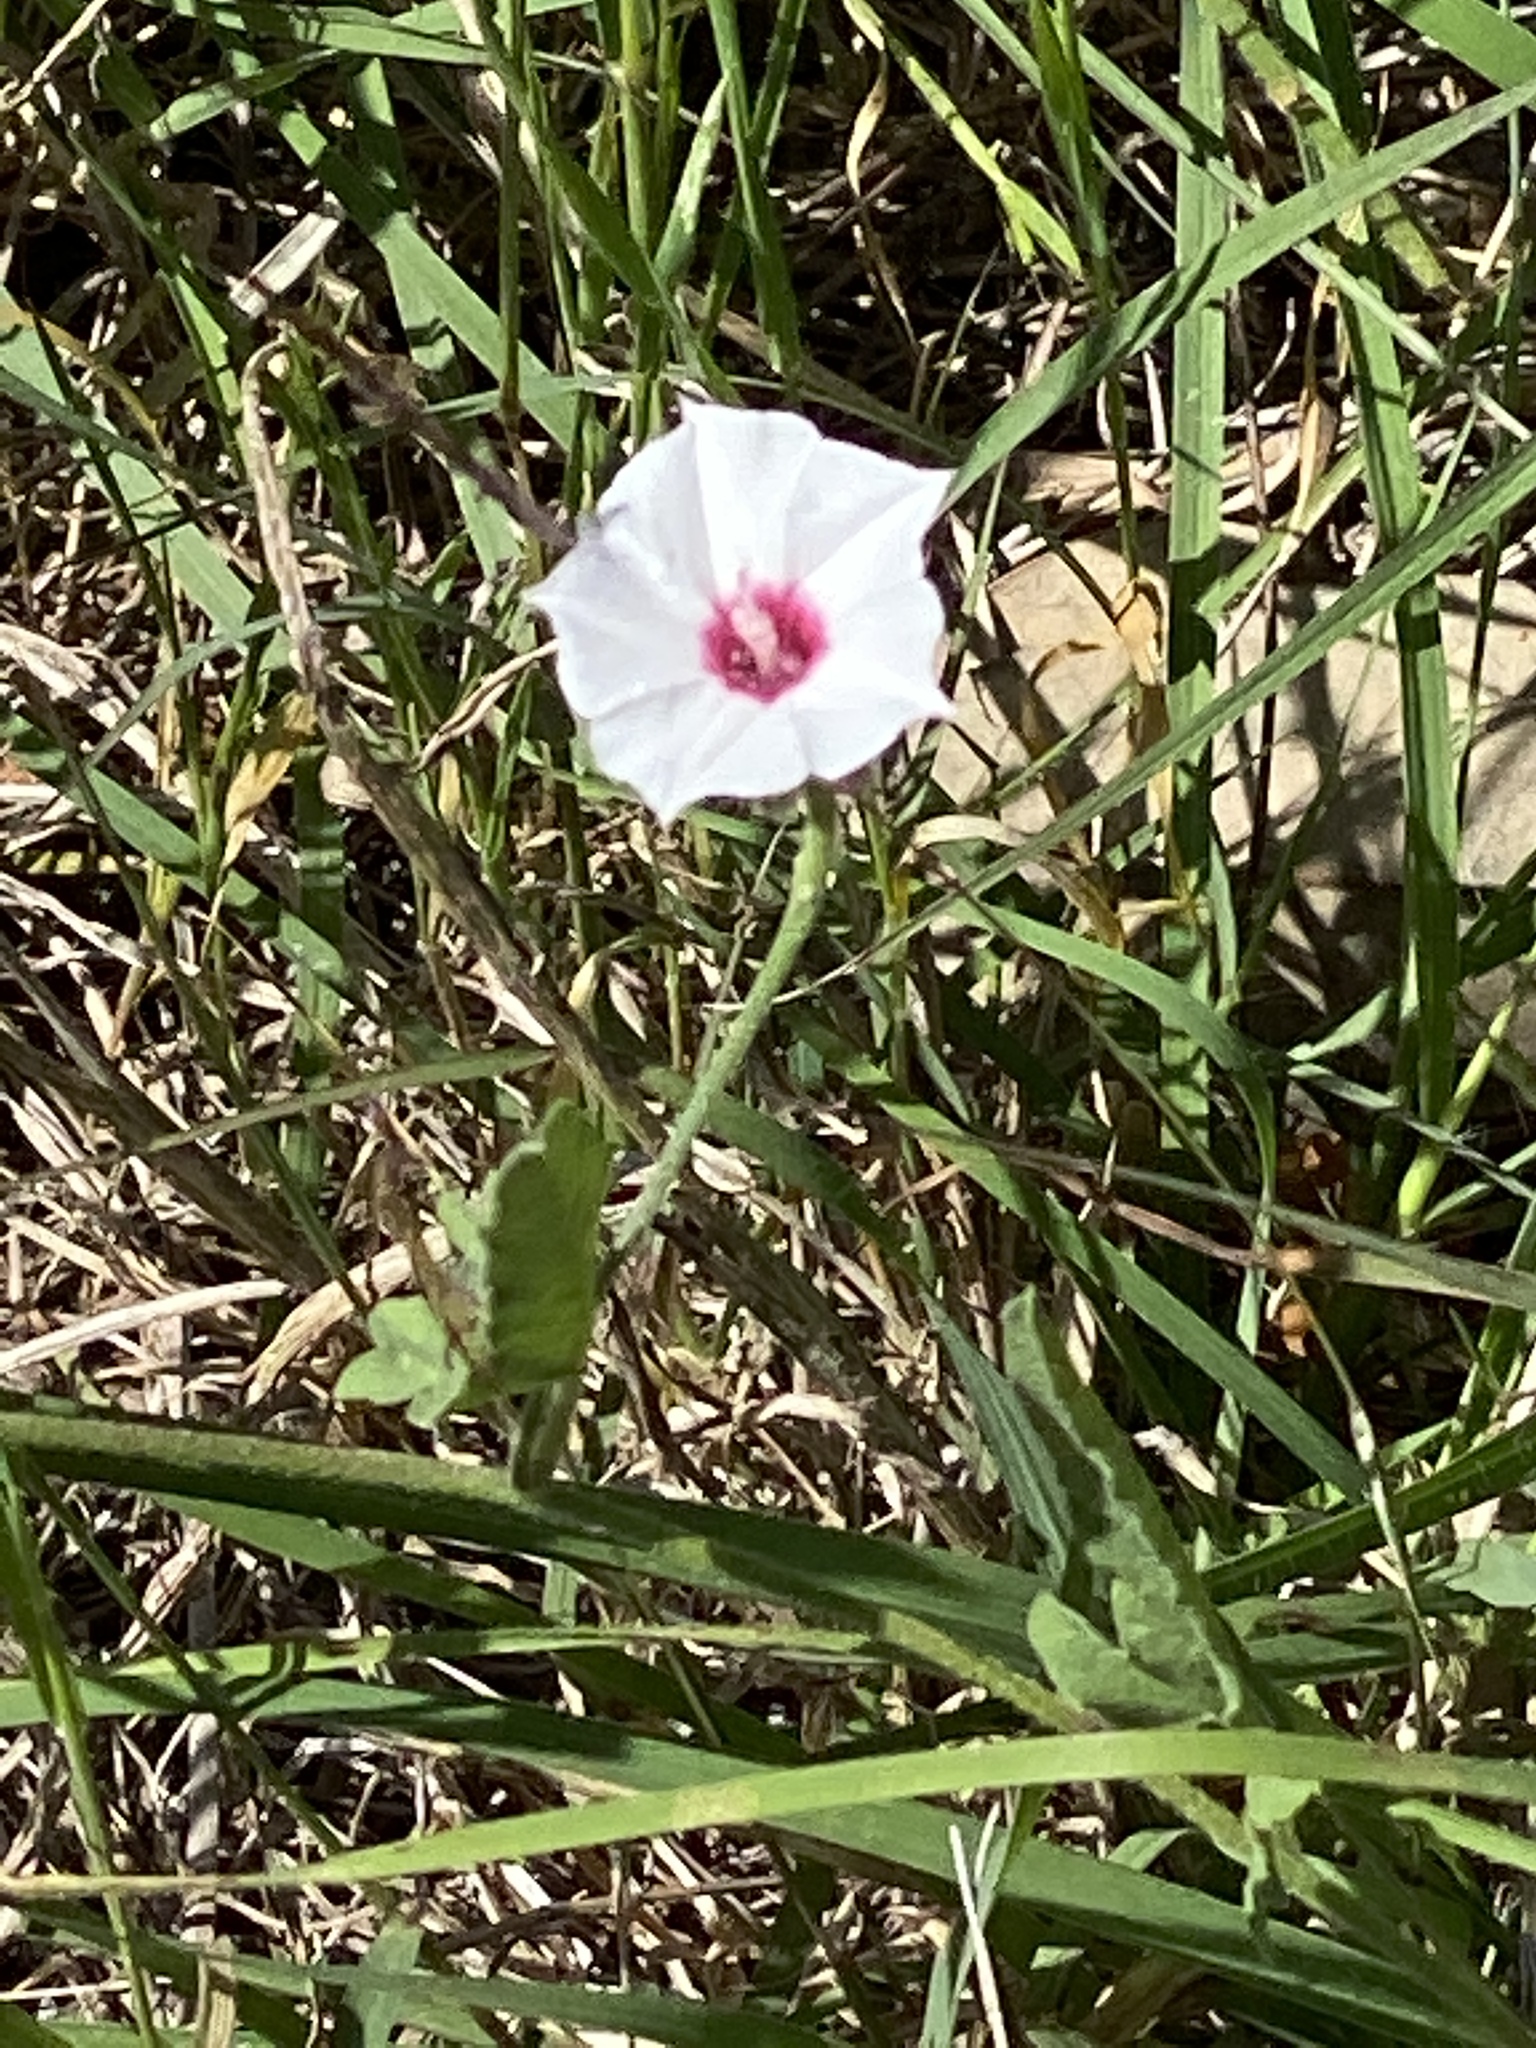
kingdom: Plantae
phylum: Tracheophyta
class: Magnoliopsida
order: Solanales
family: Convolvulaceae
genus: Convolvulus
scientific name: Convolvulus equitans
